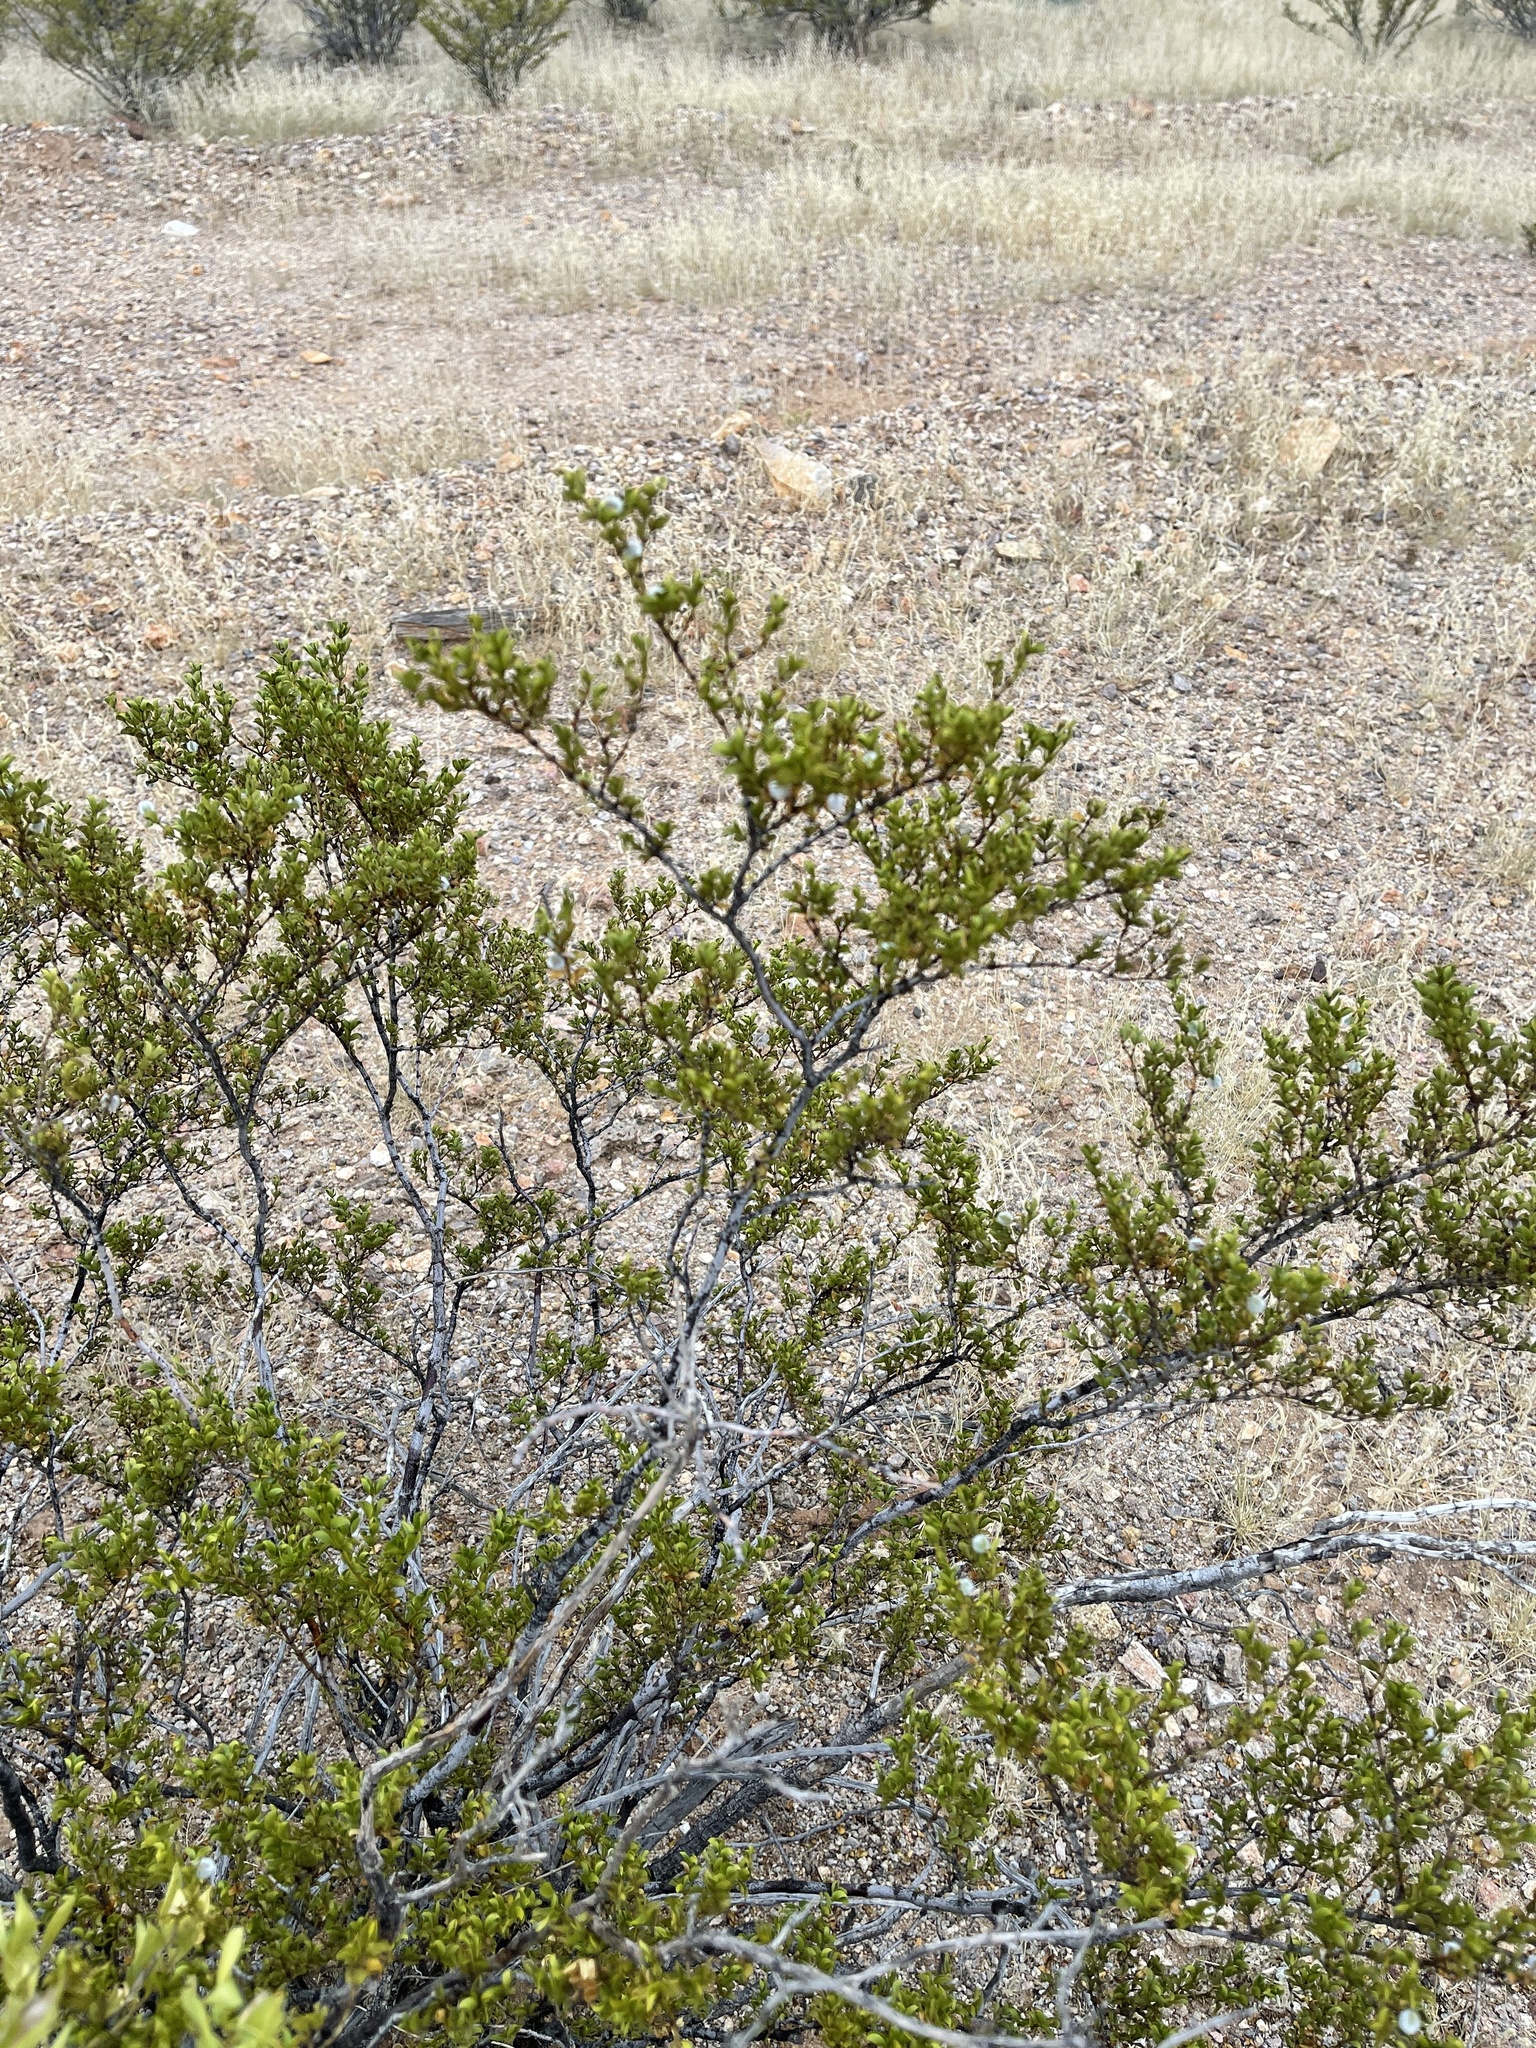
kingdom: Plantae
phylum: Tracheophyta
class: Magnoliopsida
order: Zygophyllales
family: Zygophyllaceae
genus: Larrea
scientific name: Larrea tridentata
